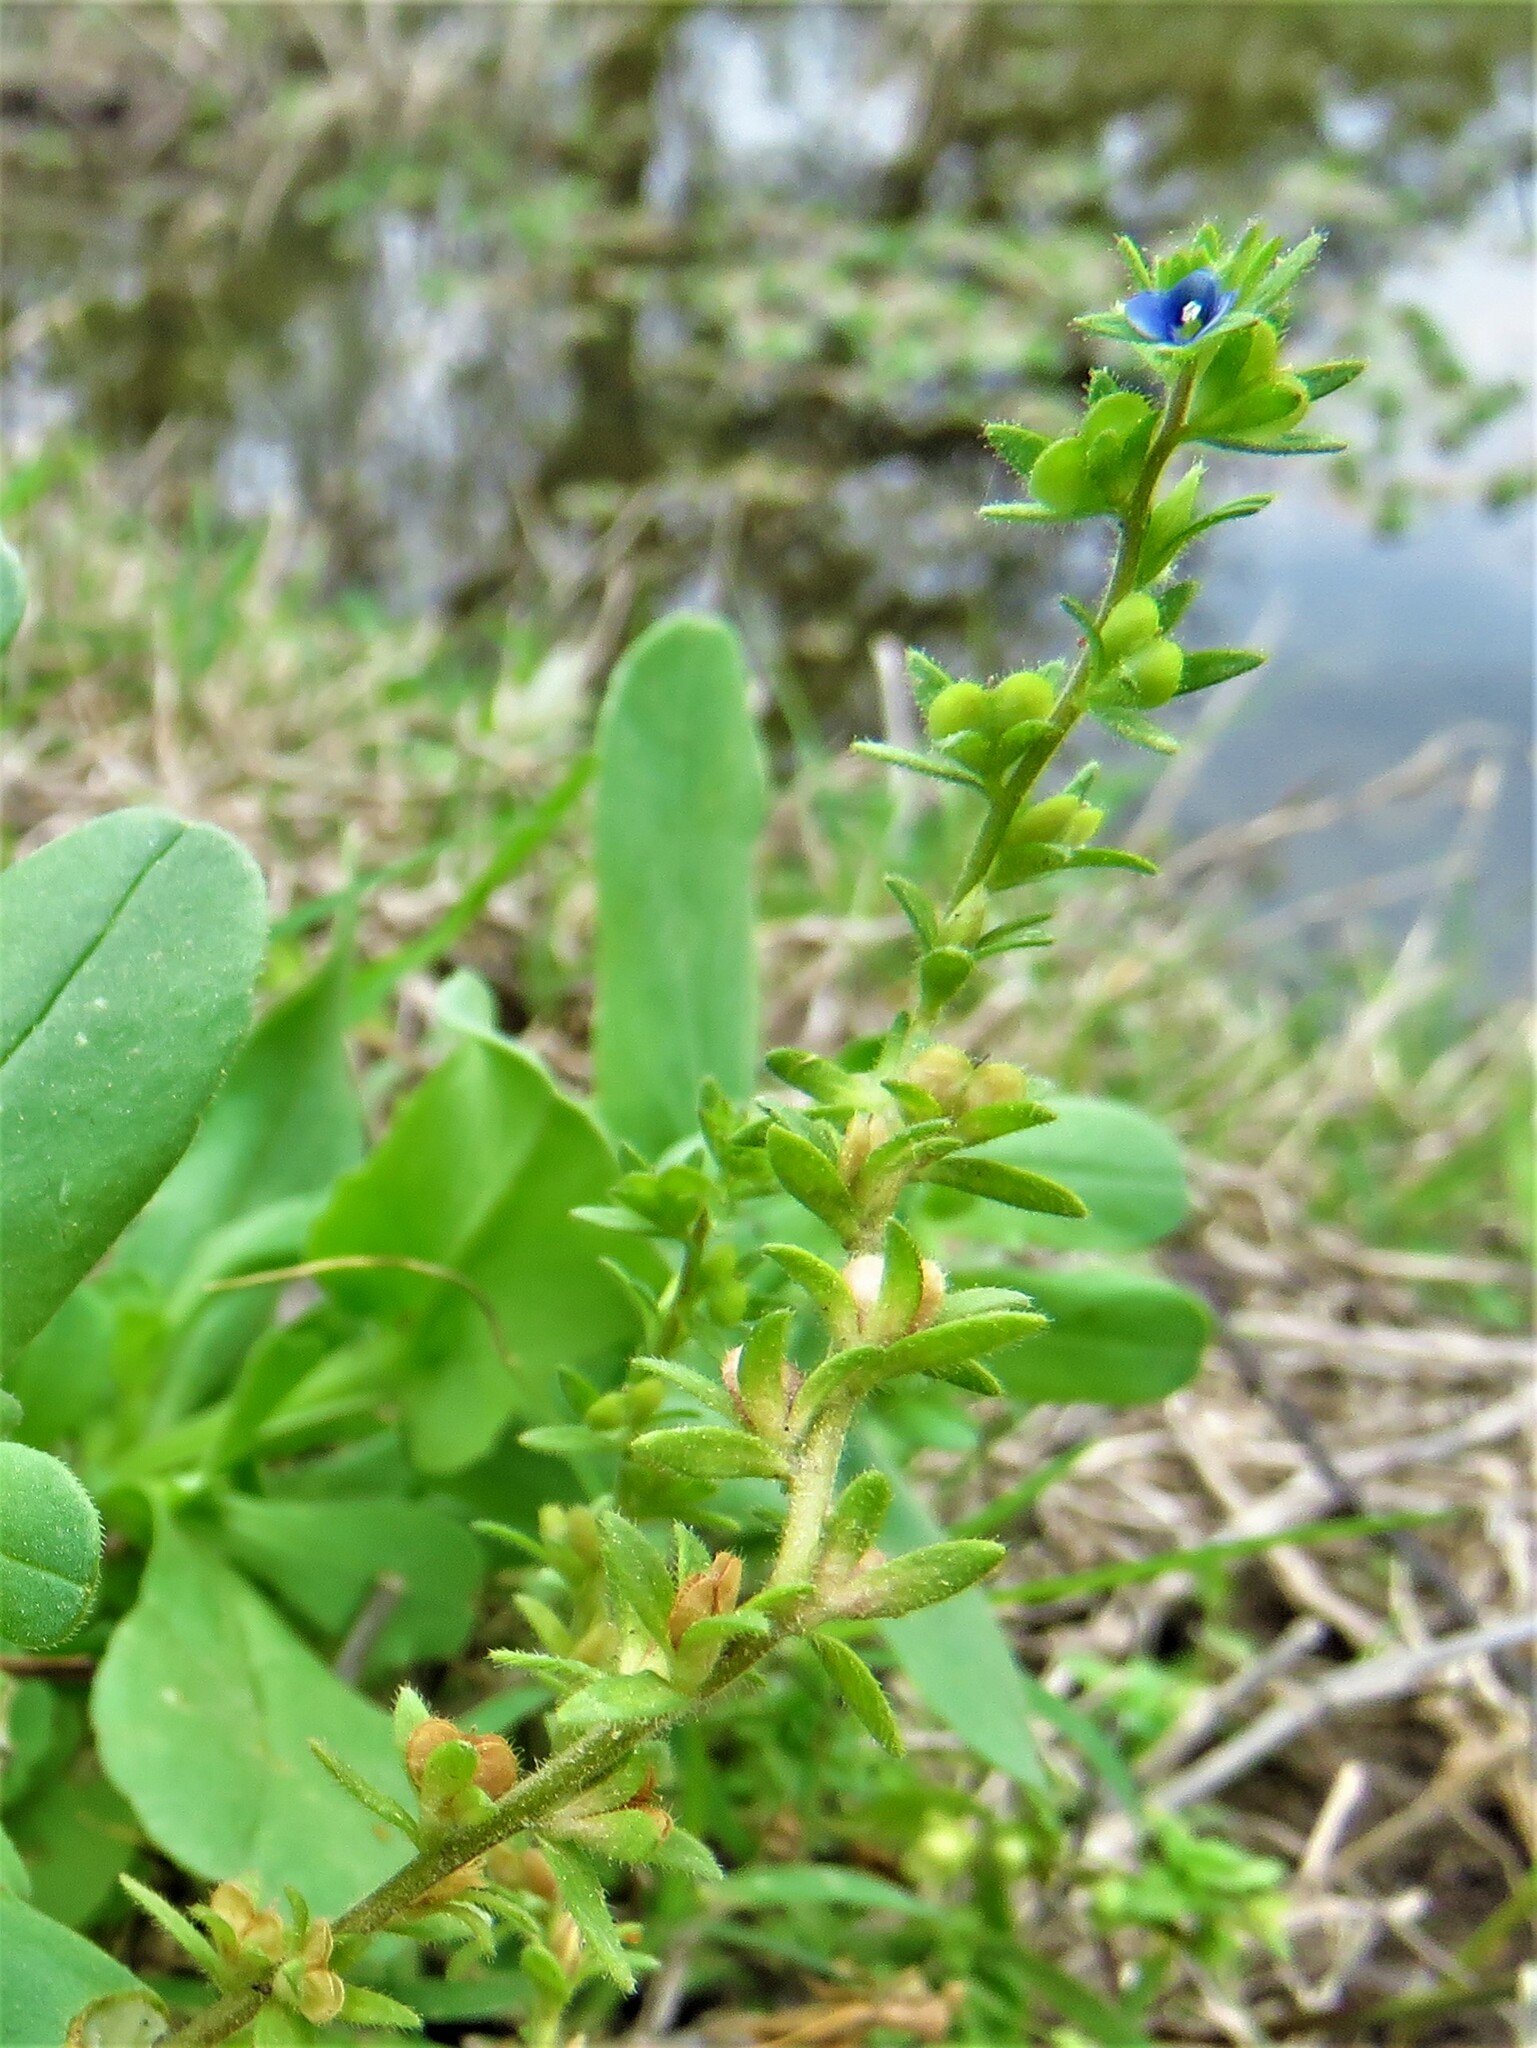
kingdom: Plantae
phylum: Tracheophyta
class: Magnoliopsida
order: Lamiales
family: Plantaginaceae
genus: Veronica
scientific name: Veronica arvensis
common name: Corn speedwell
